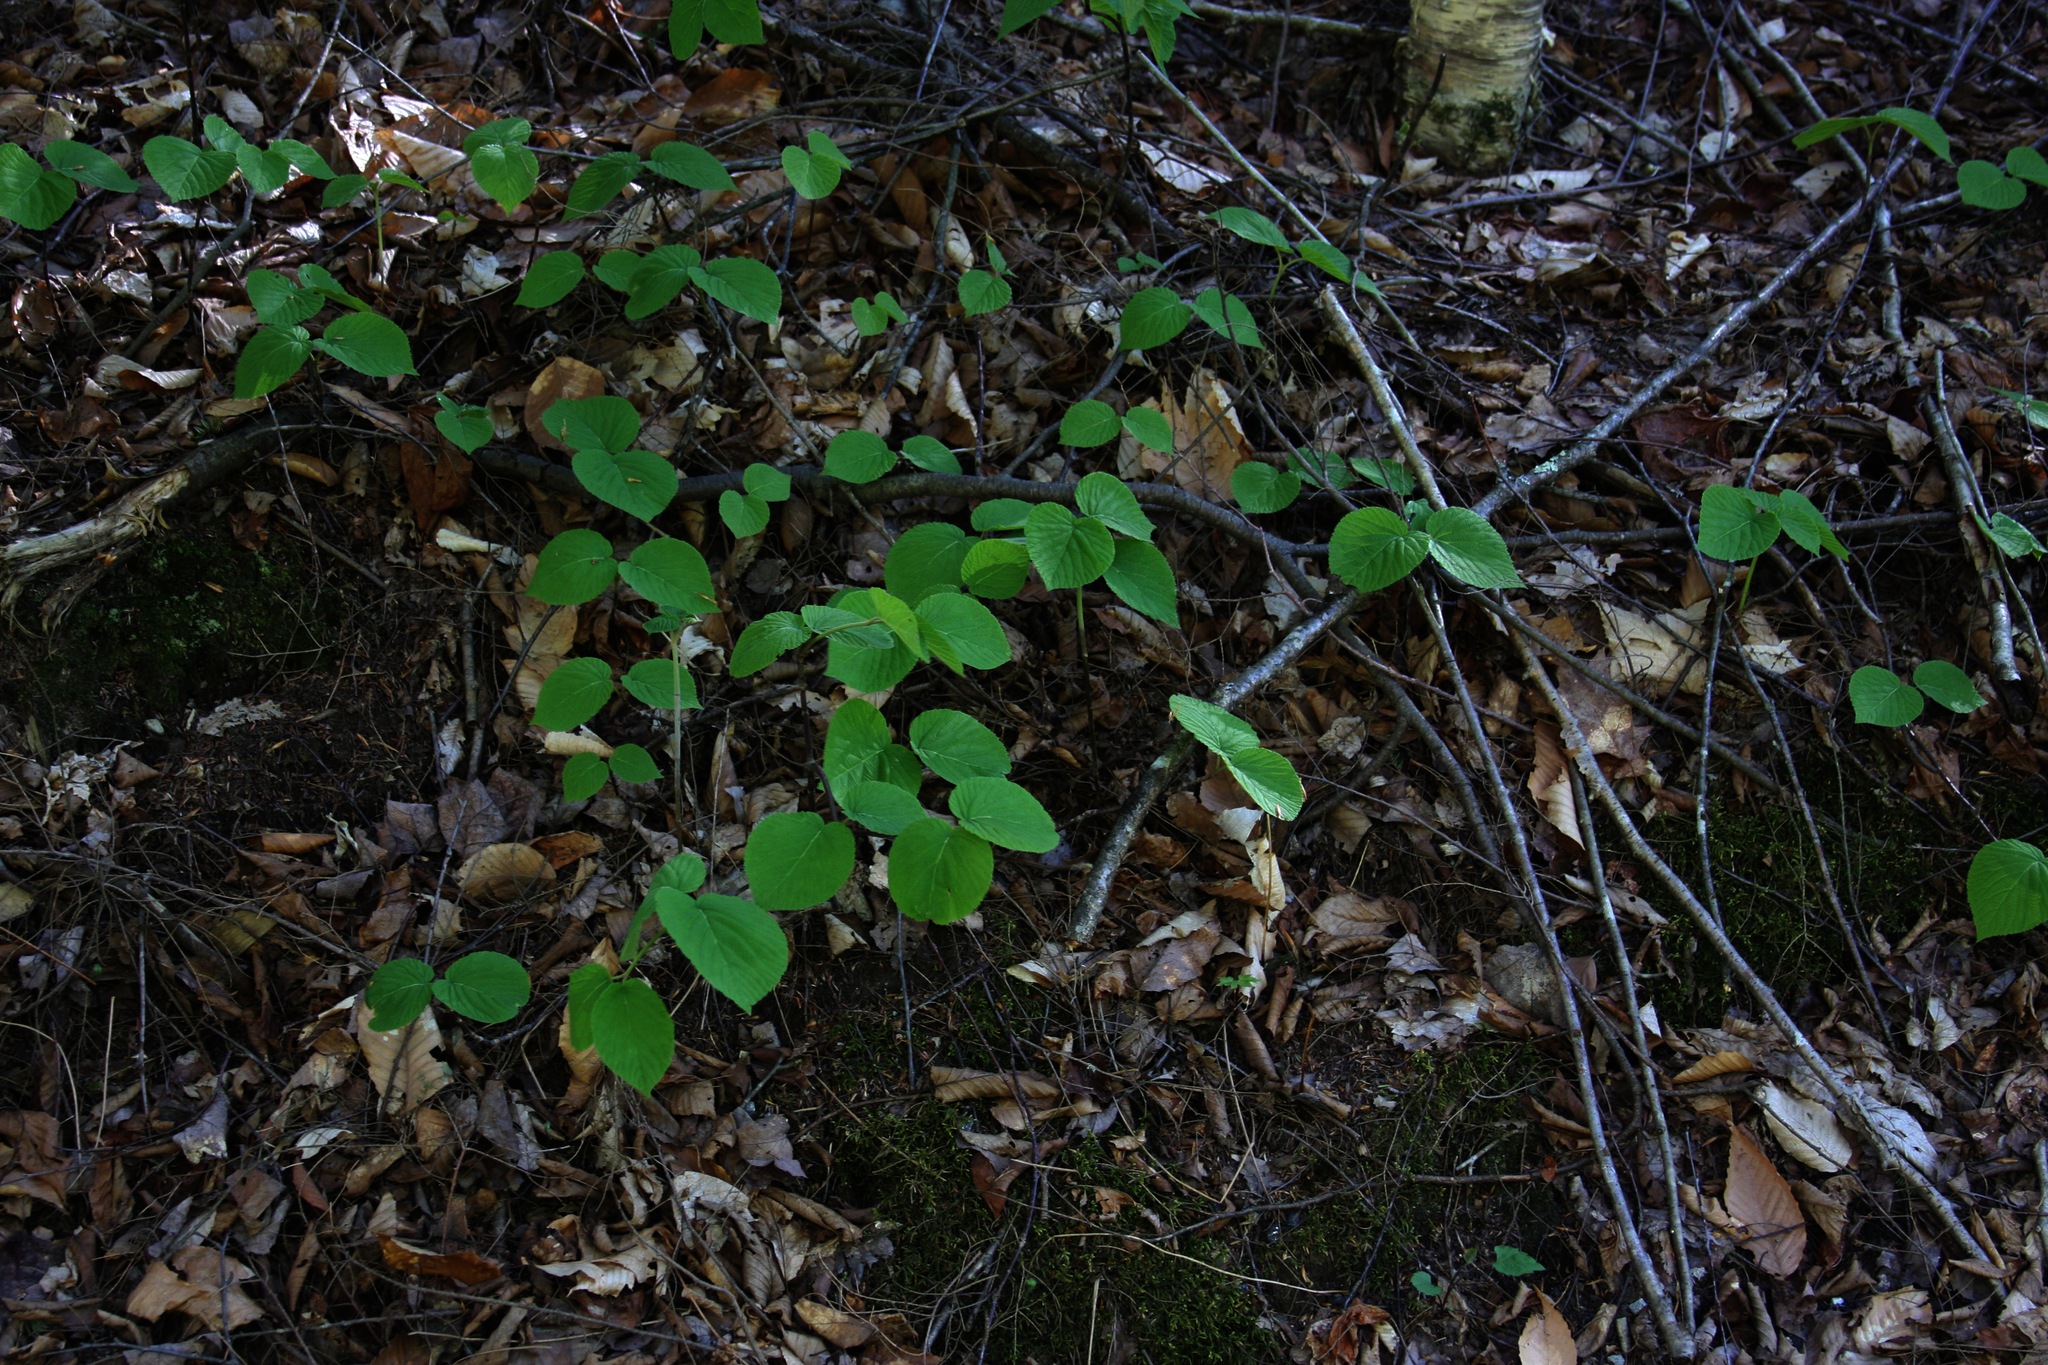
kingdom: Plantae
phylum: Tracheophyta
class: Magnoliopsida
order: Dipsacales
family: Viburnaceae
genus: Viburnum
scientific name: Viburnum lantanoides
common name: Hobblebush
